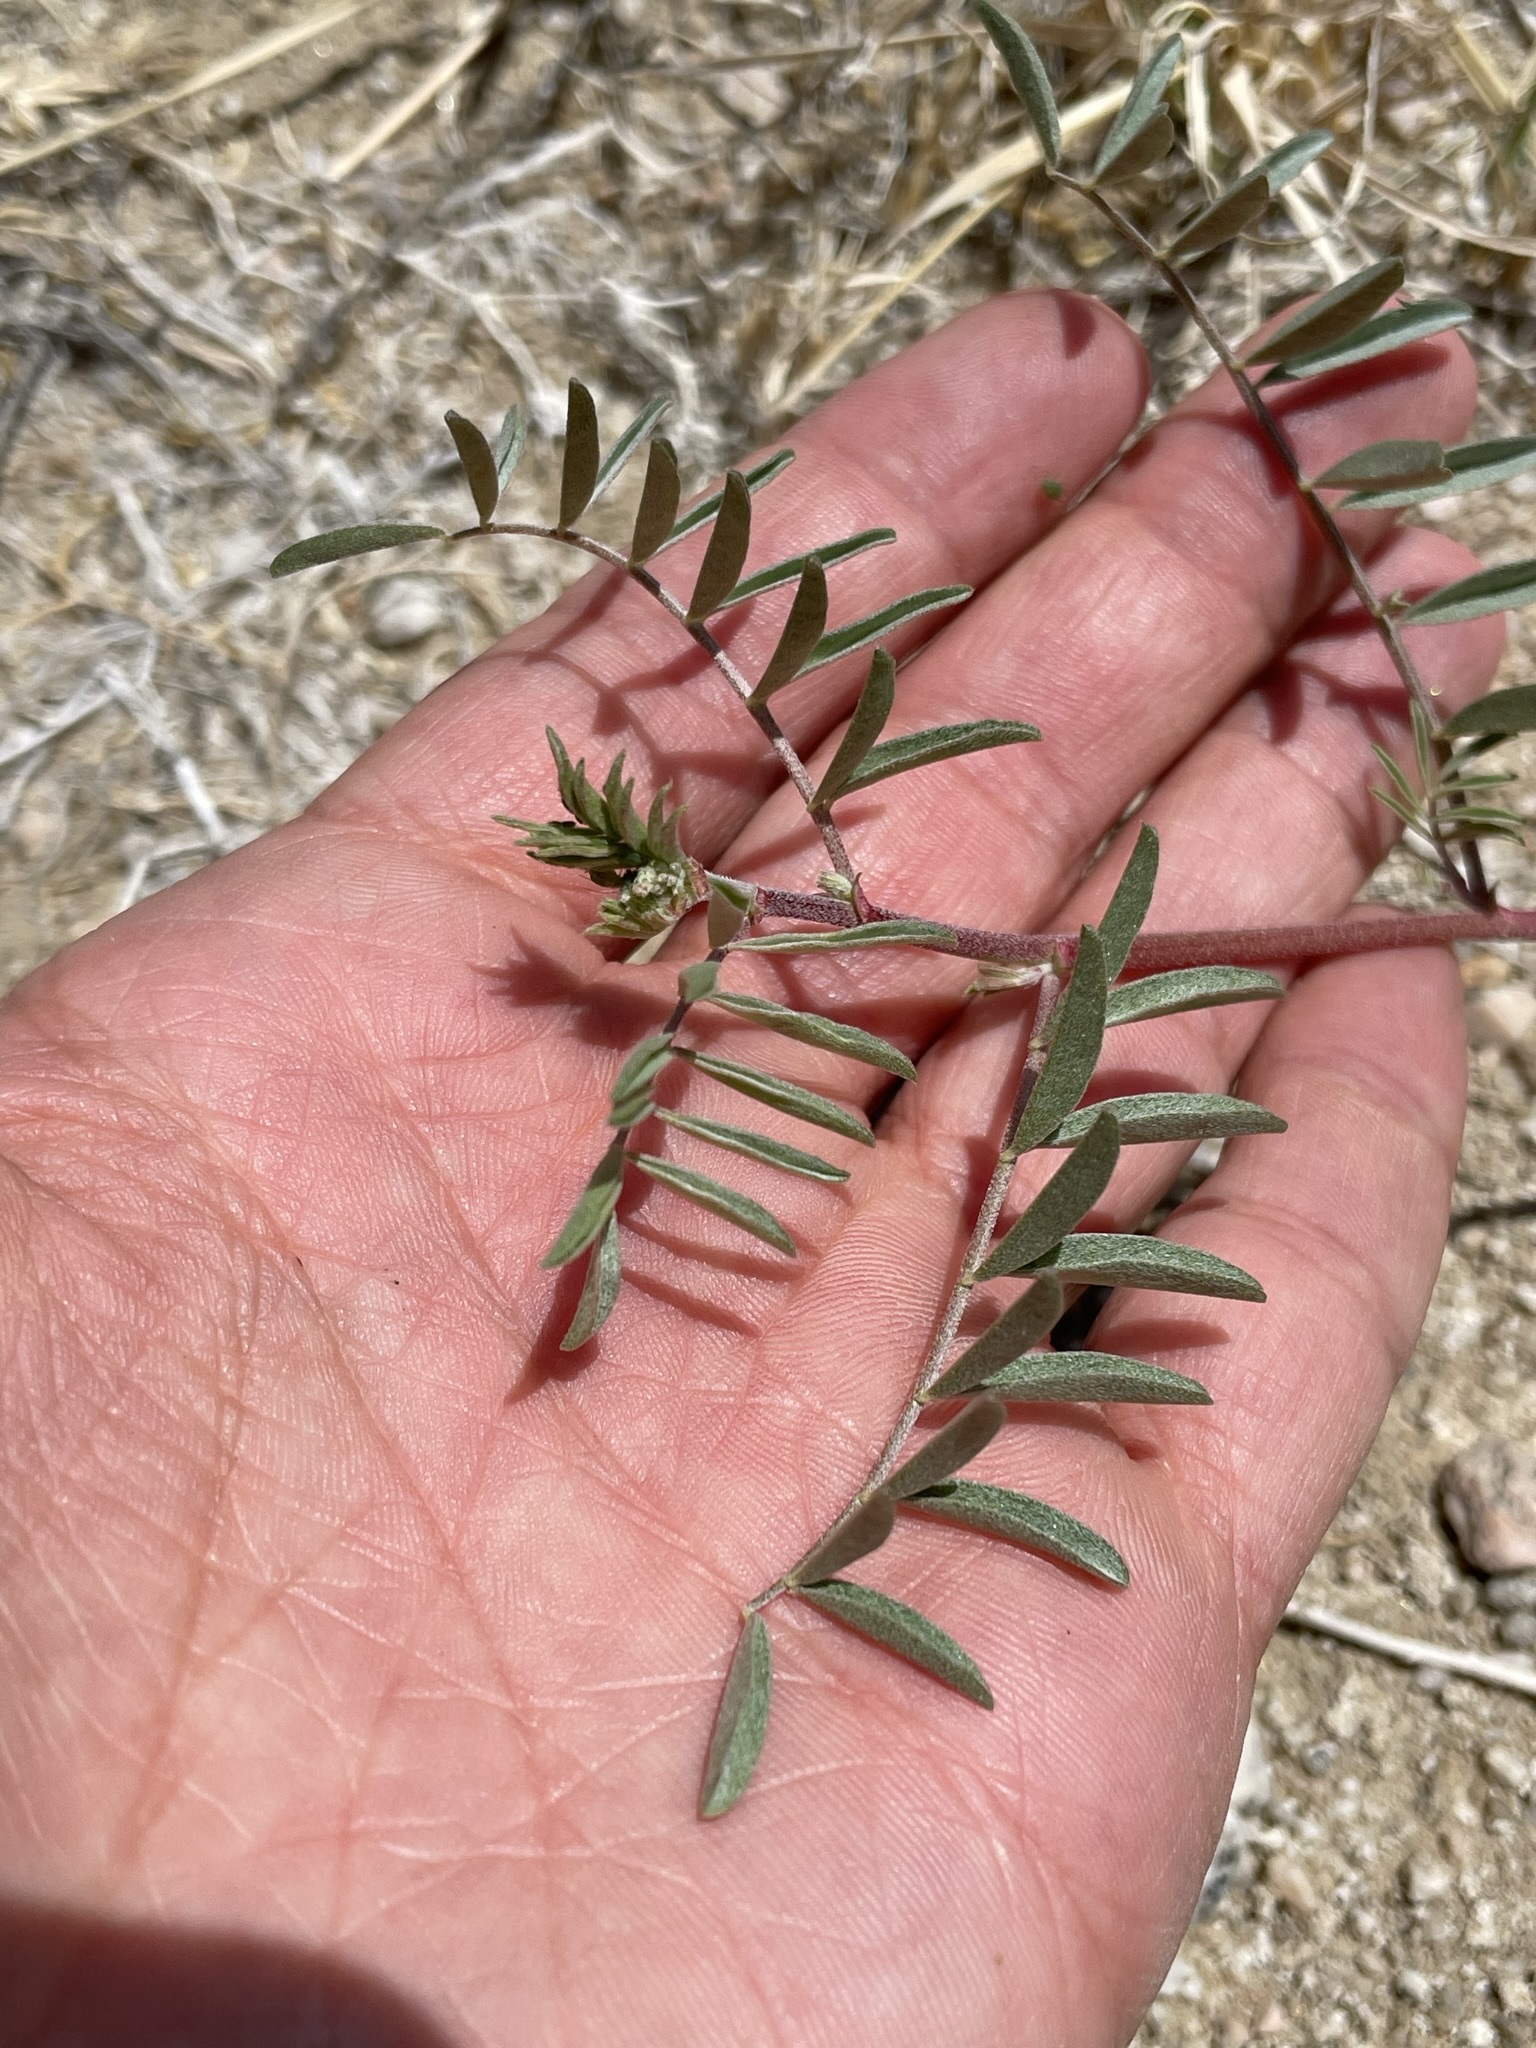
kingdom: Plantae
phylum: Tracheophyta
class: Magnoliopsida
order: Fabales
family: Fabaceae
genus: Astragalus
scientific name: Astragalus lentiginosus
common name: Freckled milkvetch
